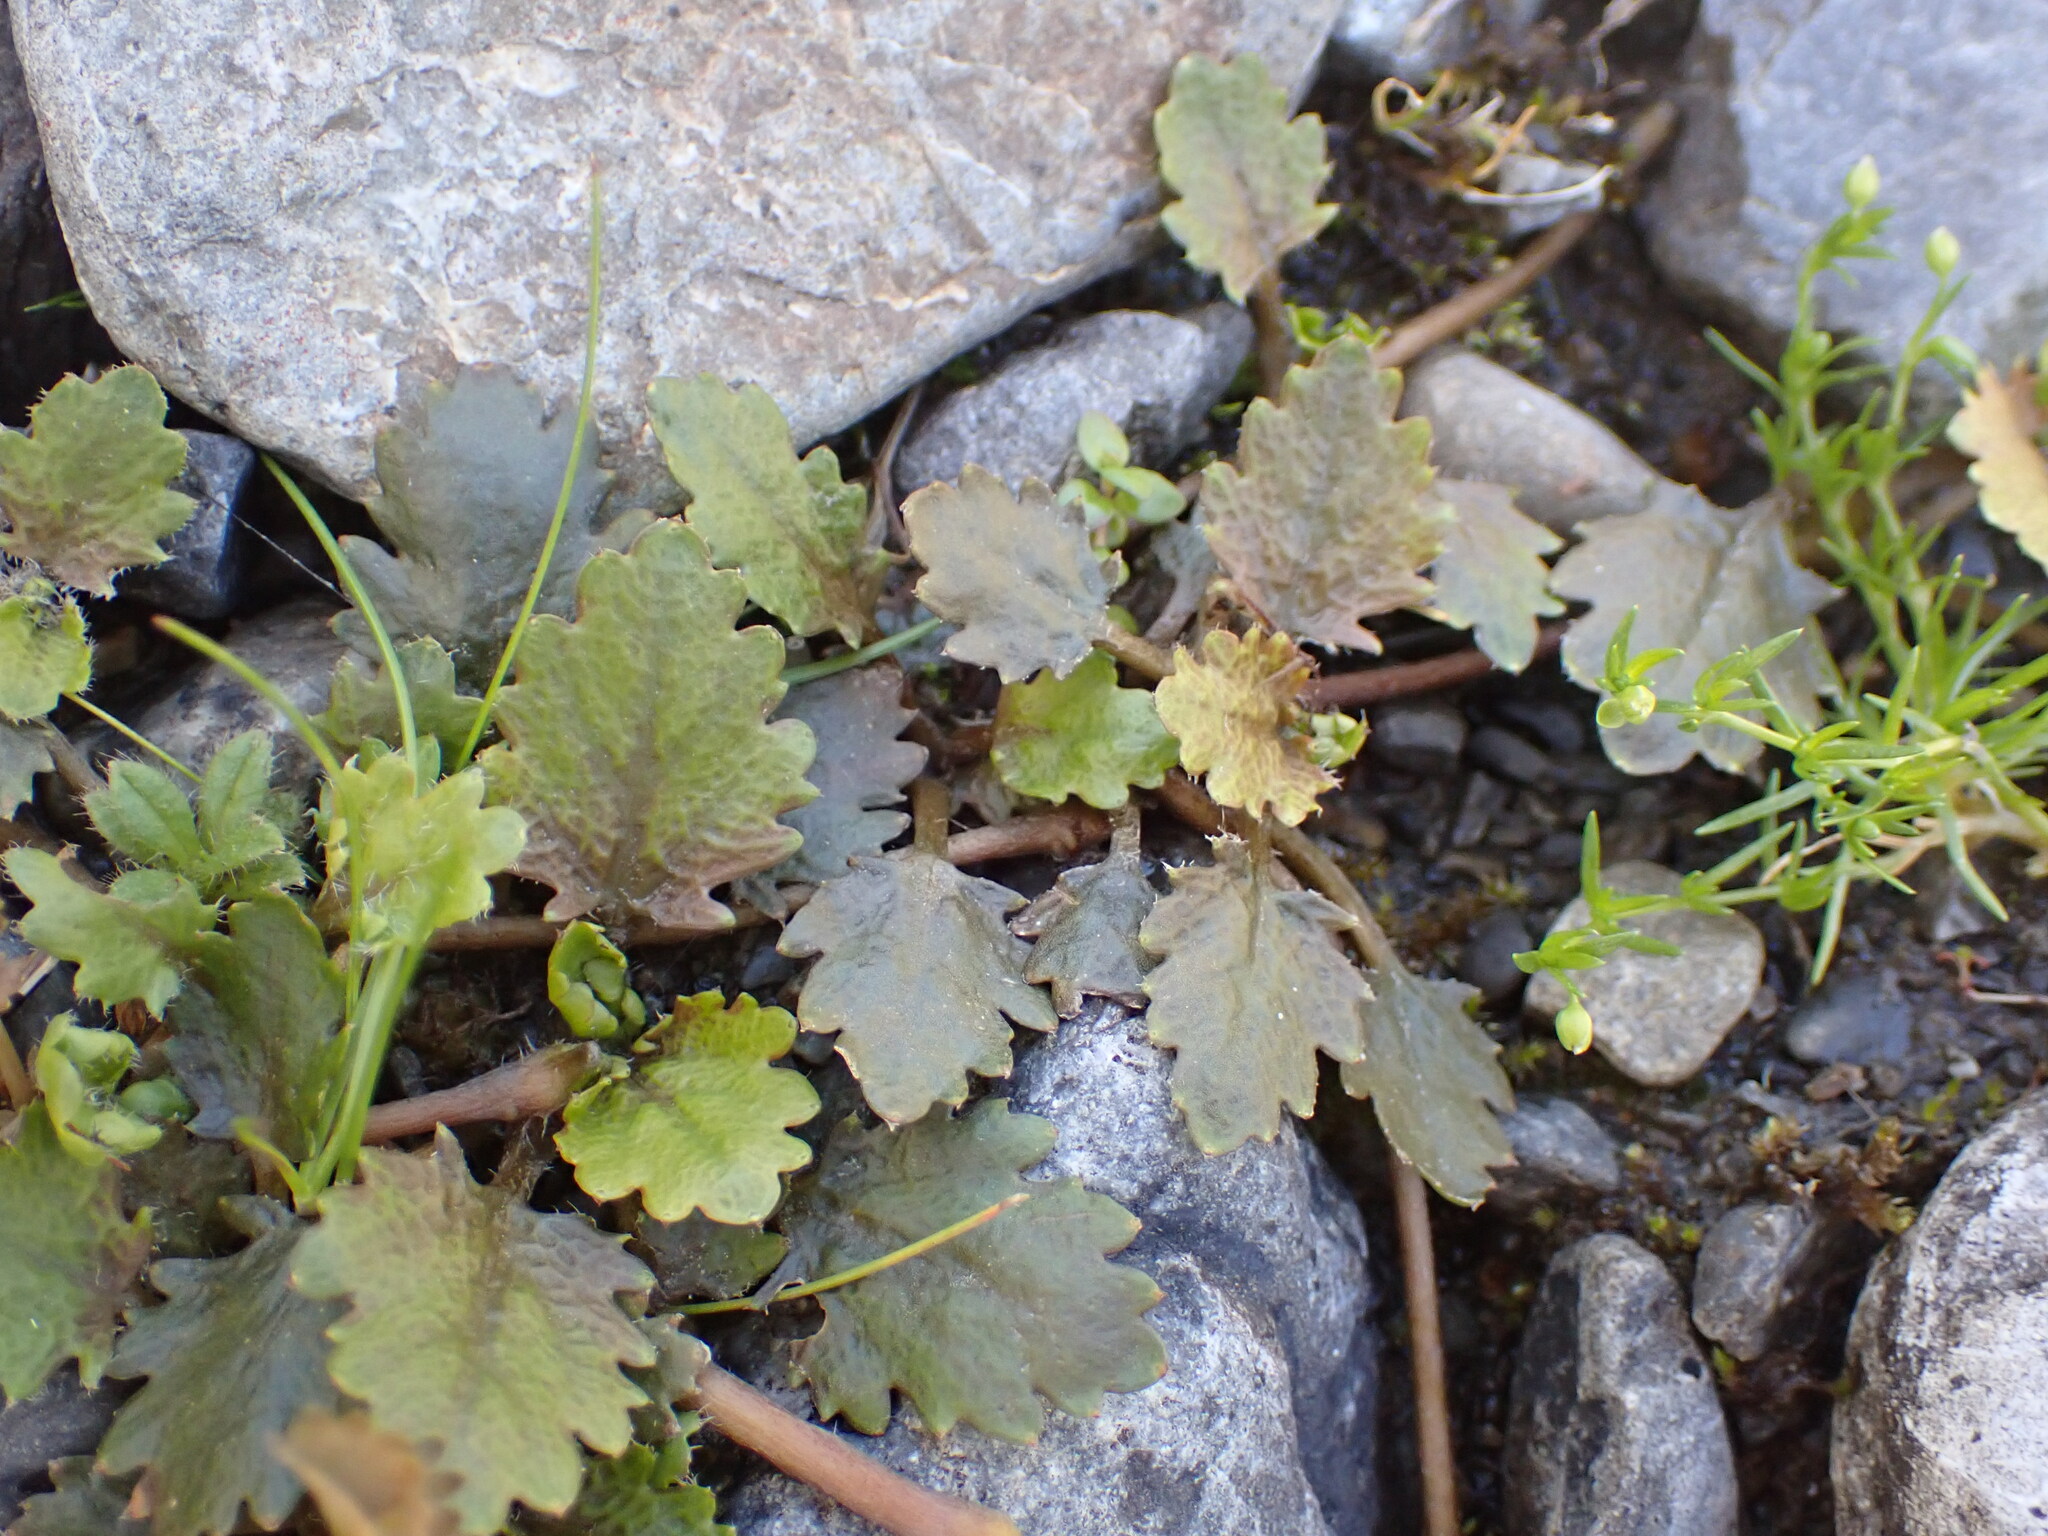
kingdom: Plantae
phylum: Tracheophyta
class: Magnoliopsida
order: Gunnerales
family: Gunneraceae
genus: Gunnera
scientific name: Gunnera dentata
